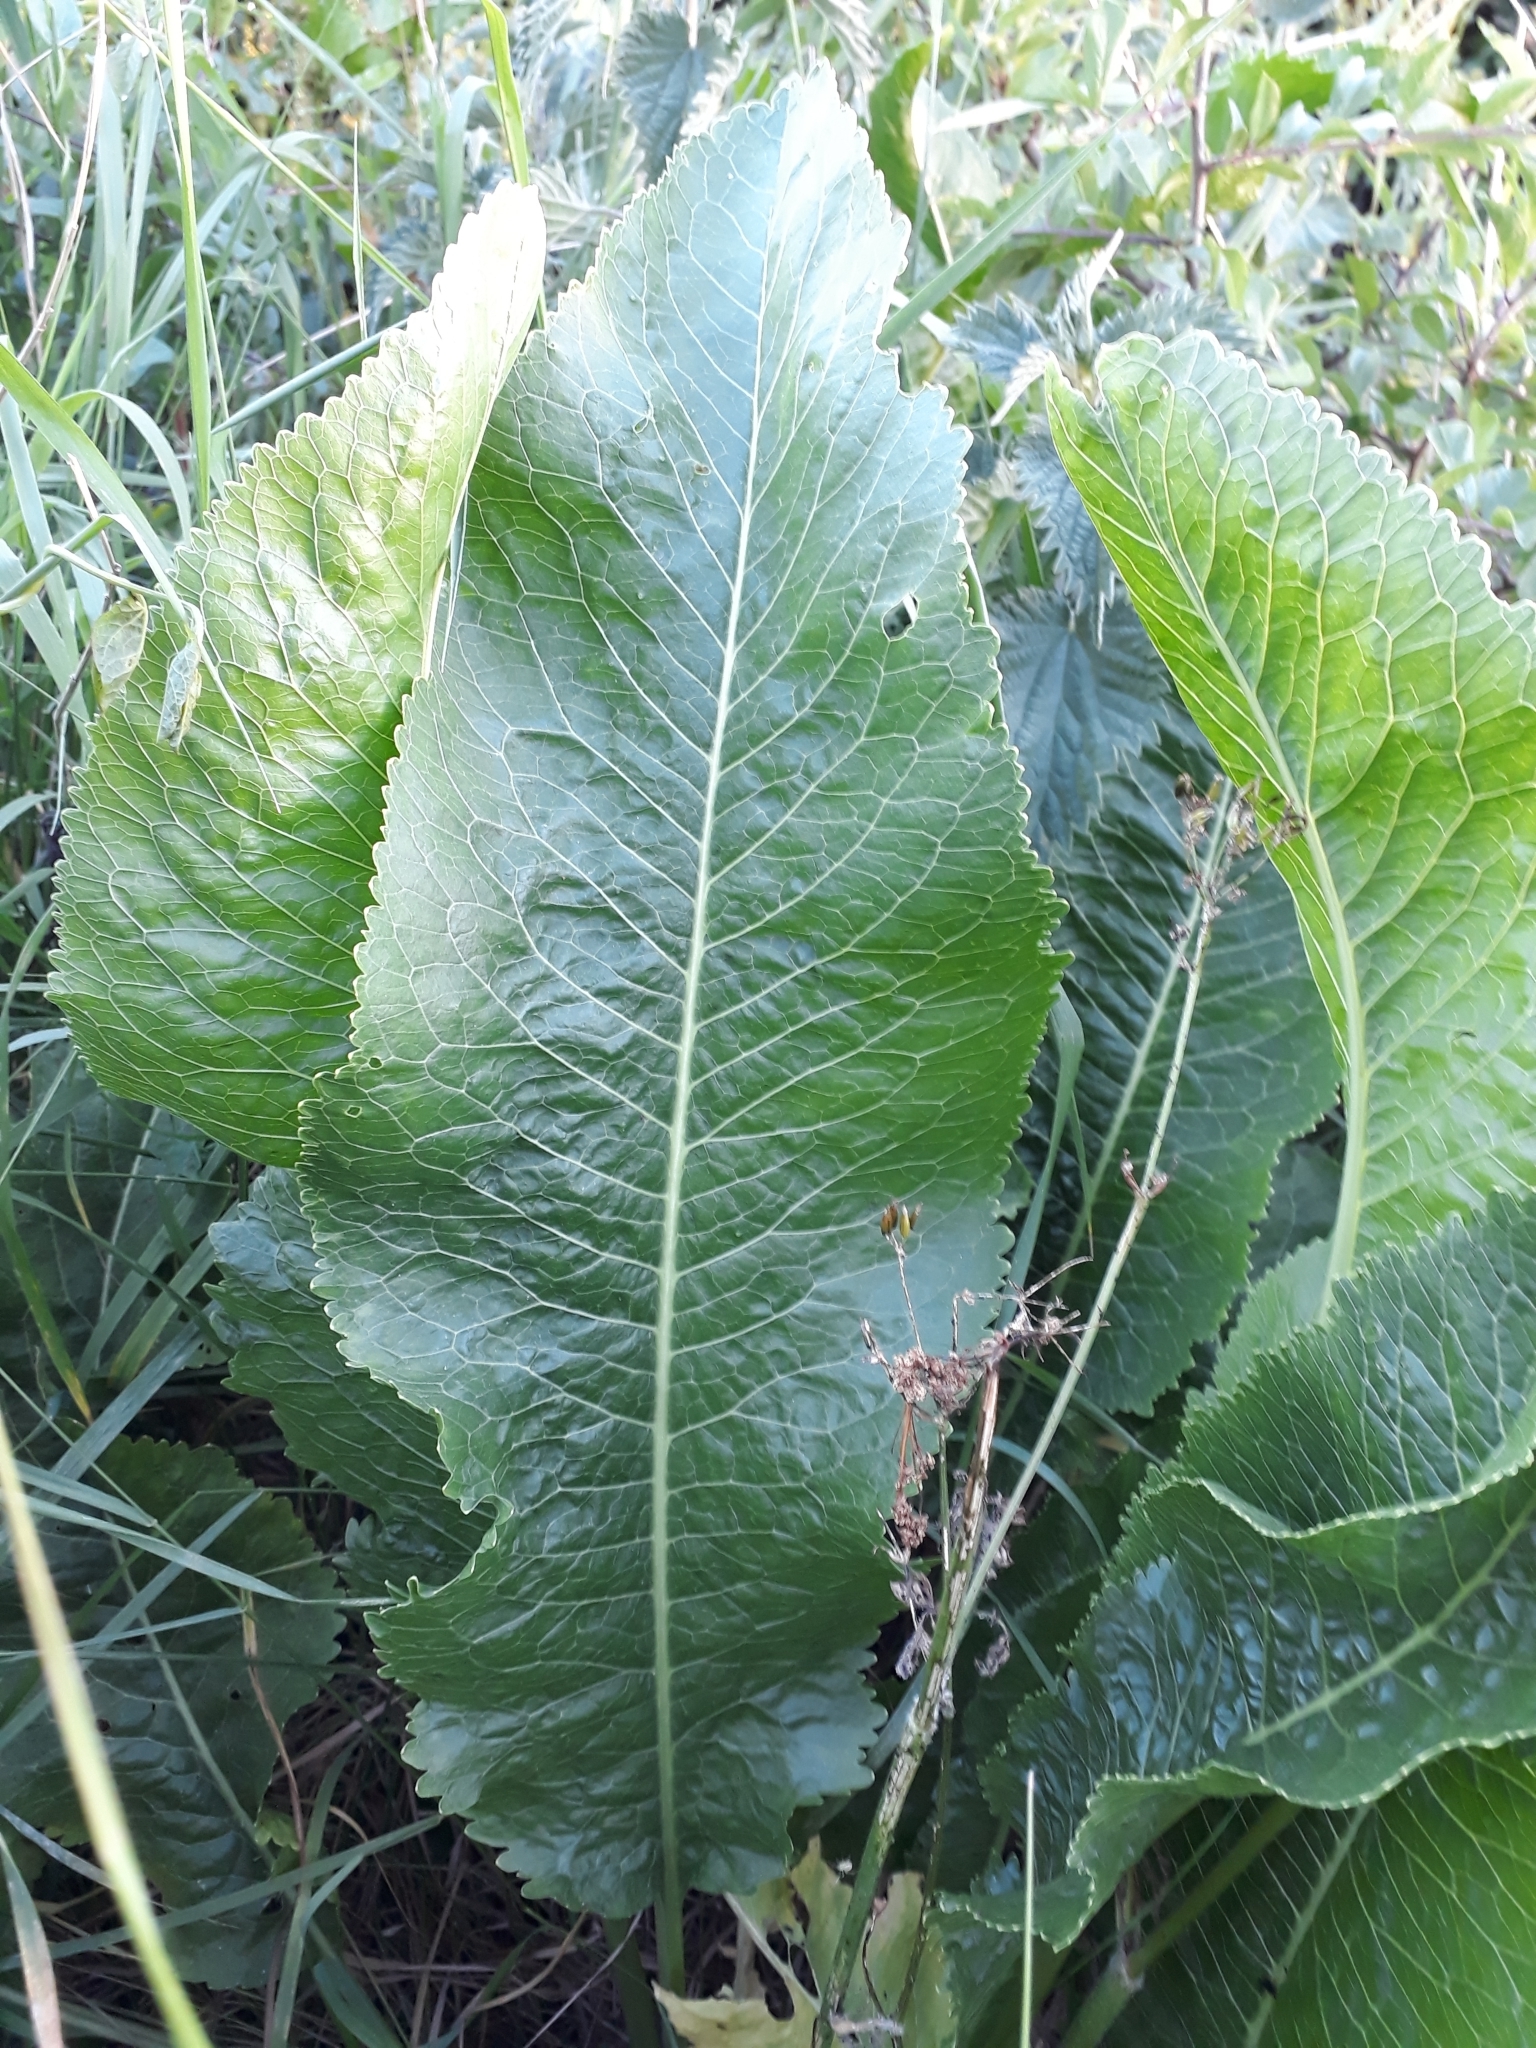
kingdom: Plantae
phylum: Tracheophyta
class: Magnoliopsida
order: Brassicales
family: Brassicaceae
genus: Armoracia
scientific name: Armoracia rusticana
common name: Horseradish
